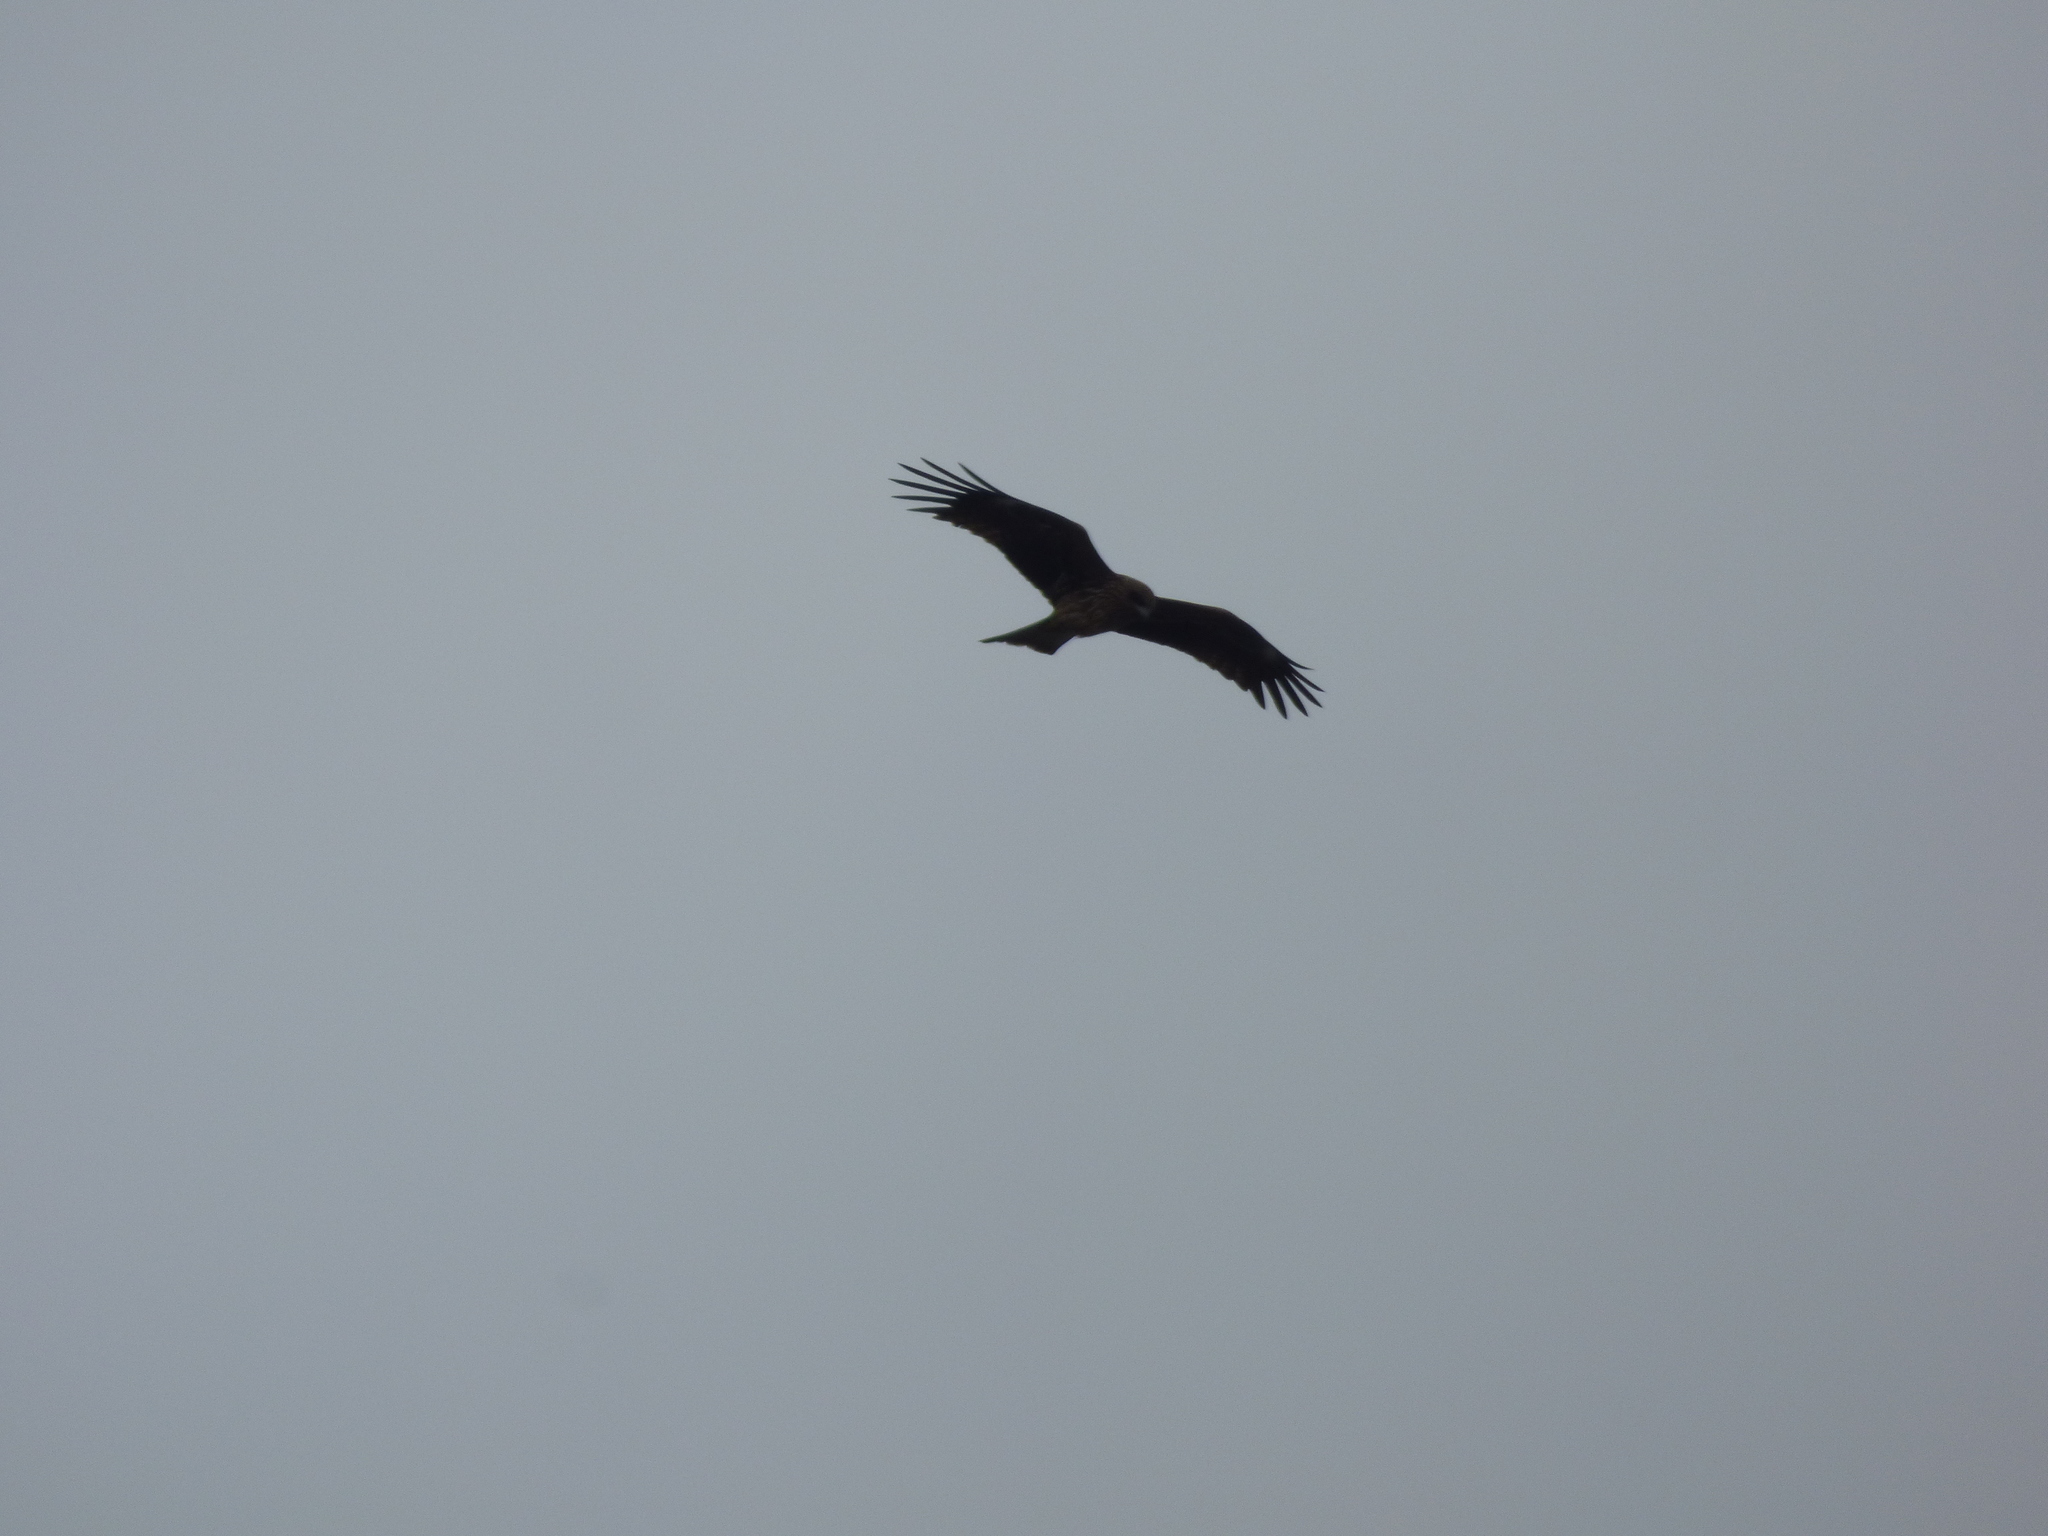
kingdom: Animalia
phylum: Chordata
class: Aves
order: Accipitriformes
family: Accipitridae
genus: Milvus
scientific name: Milvus migrans
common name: Black kite
